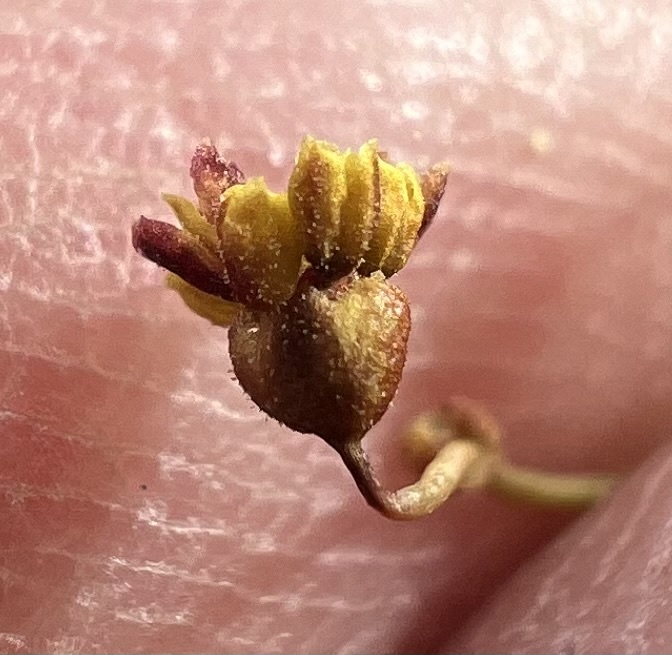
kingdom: Plantae
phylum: Tracheophyta
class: Magnoliopsida
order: Caryophyllales
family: Polygonaceae
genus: Eriogonum
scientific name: Eriogonum pusillum
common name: Yellow turbans
